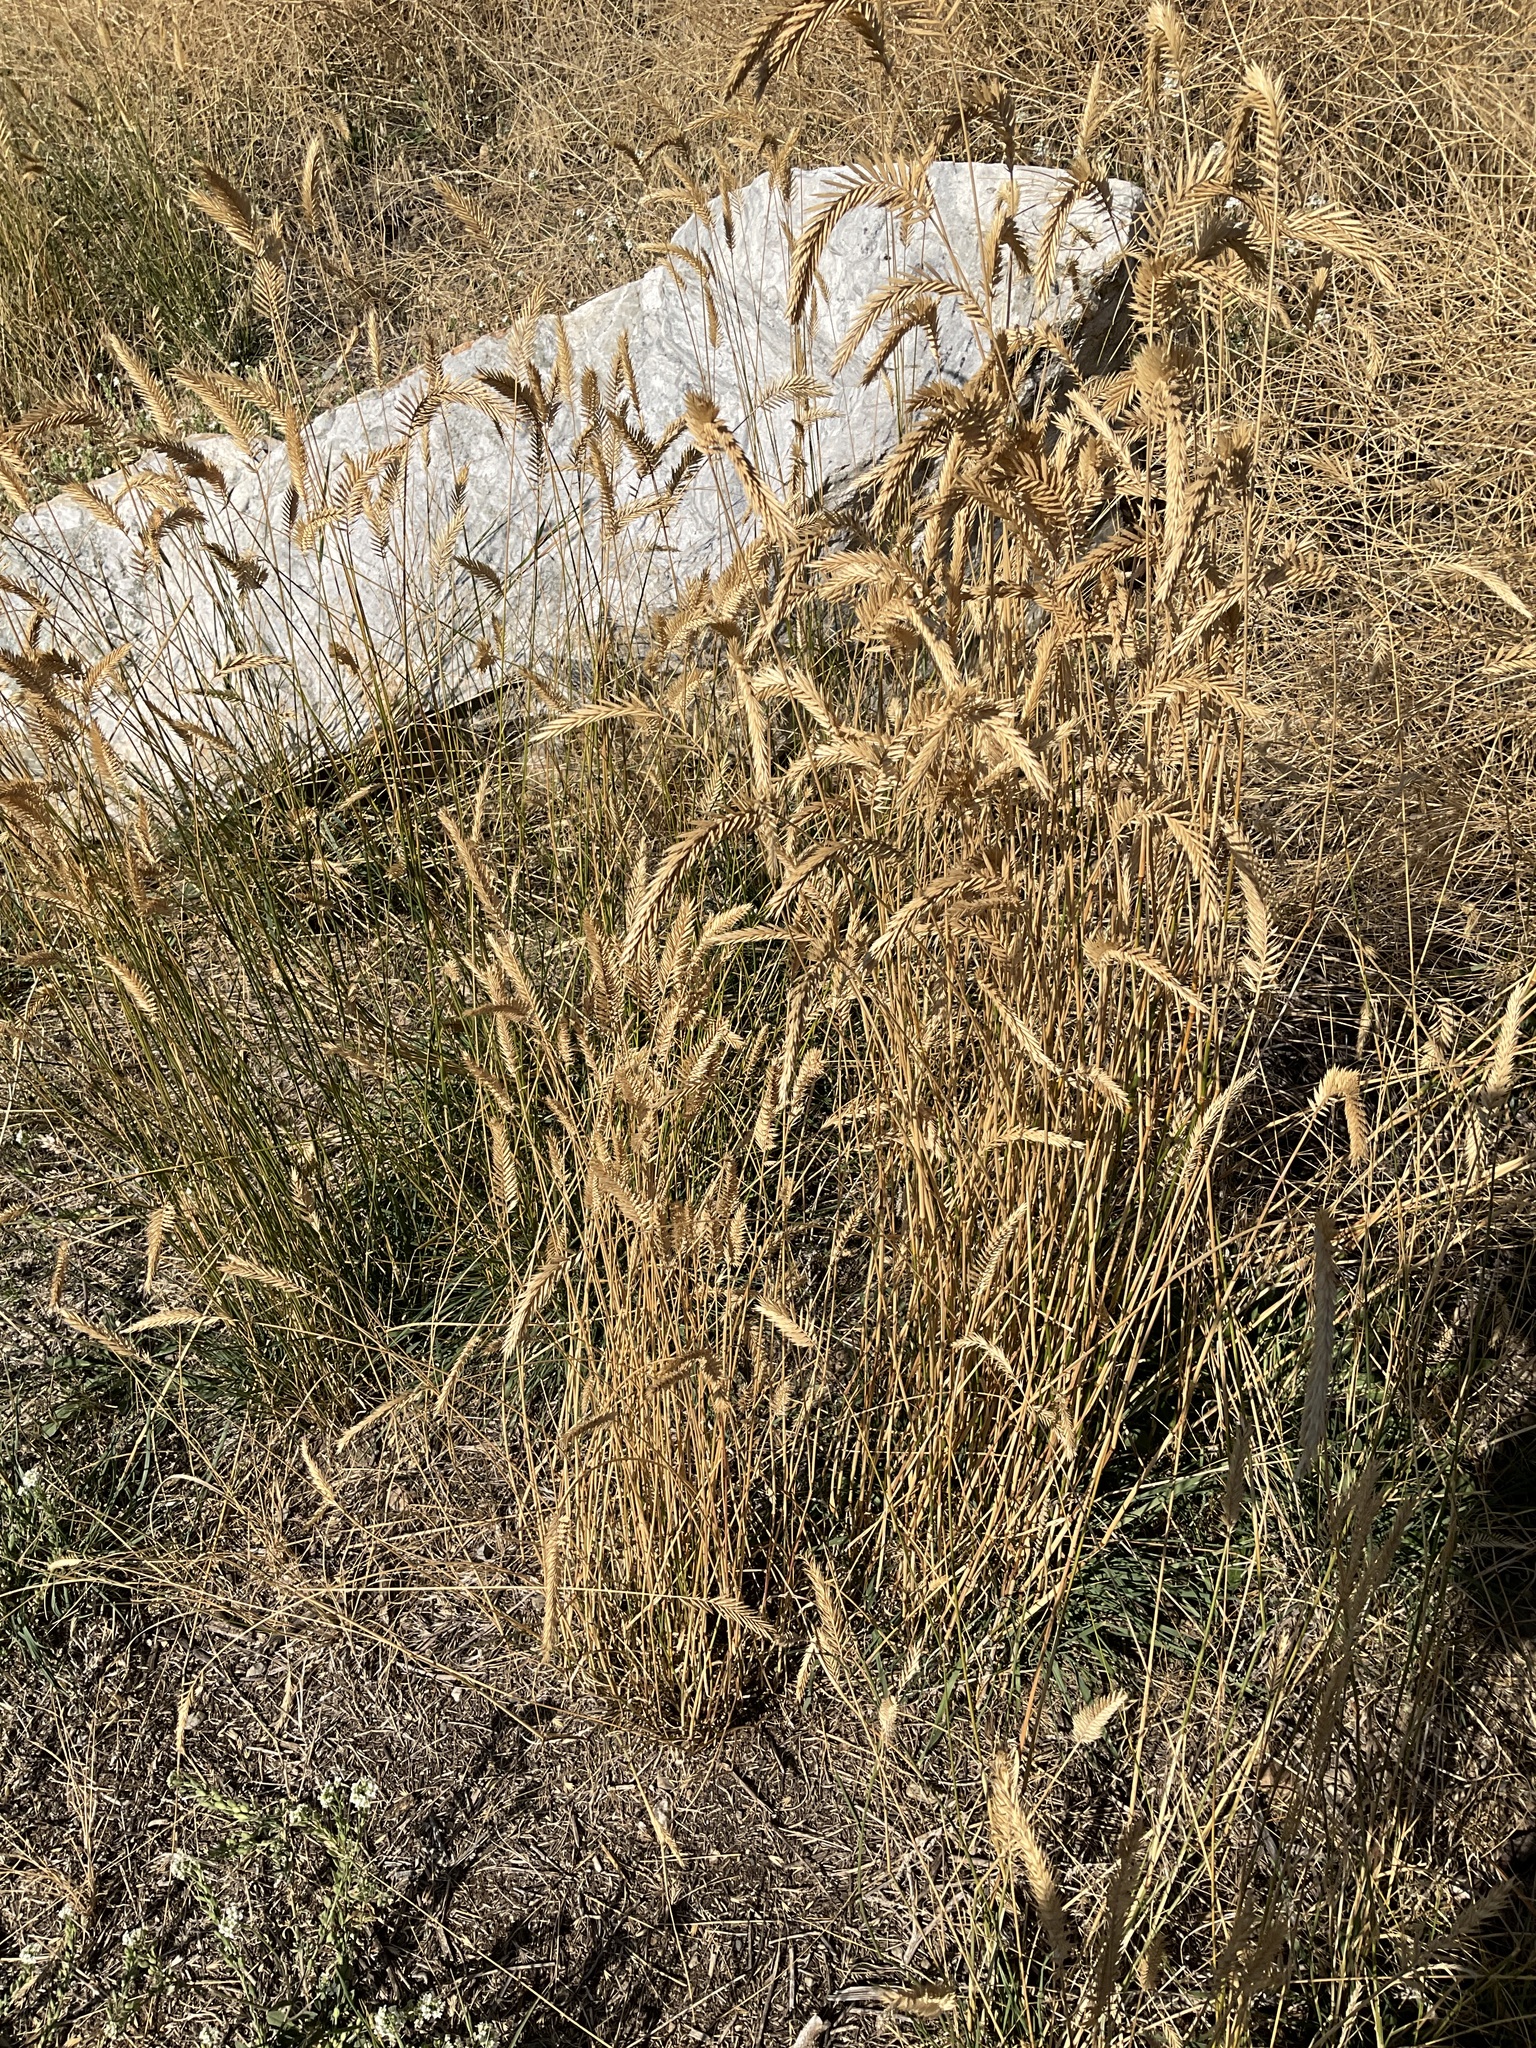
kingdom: Plantae
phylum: Tracheophyta
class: Liliopsida
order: Poales
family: Poaceae
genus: Agropyron
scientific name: Agropyron cristatum
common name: Crested wheatgrass
